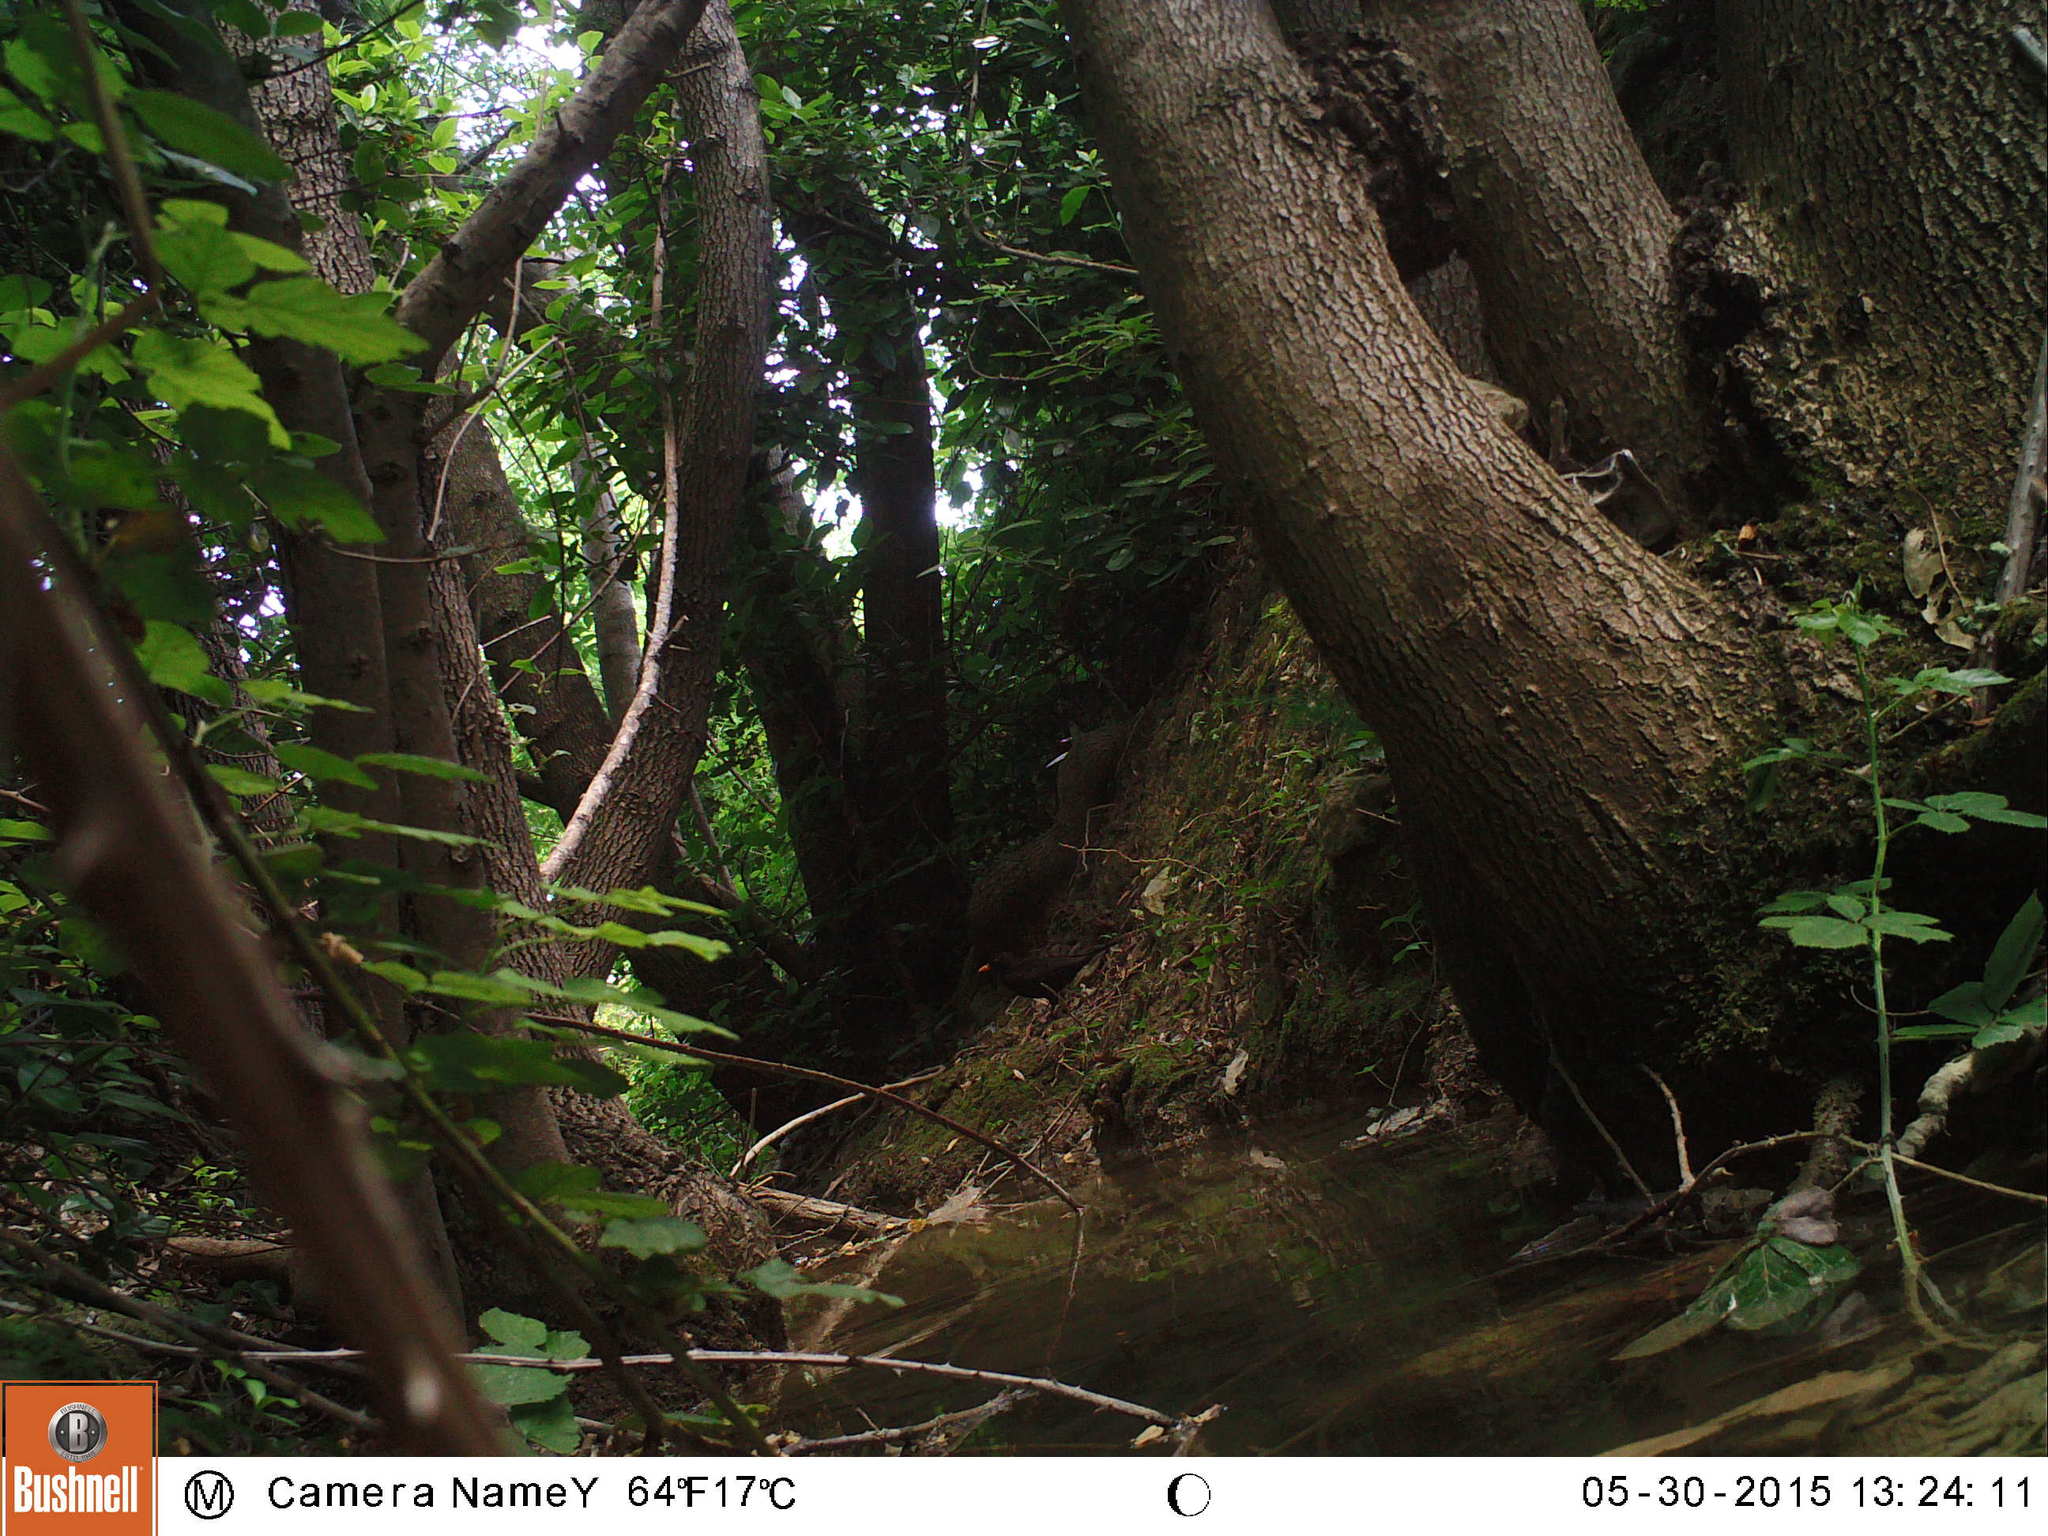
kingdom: Animalia
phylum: Chordata
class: Aves
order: Passeriformes
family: Turdidae
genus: Turdus
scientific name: Turdus merula
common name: Common blackbird
